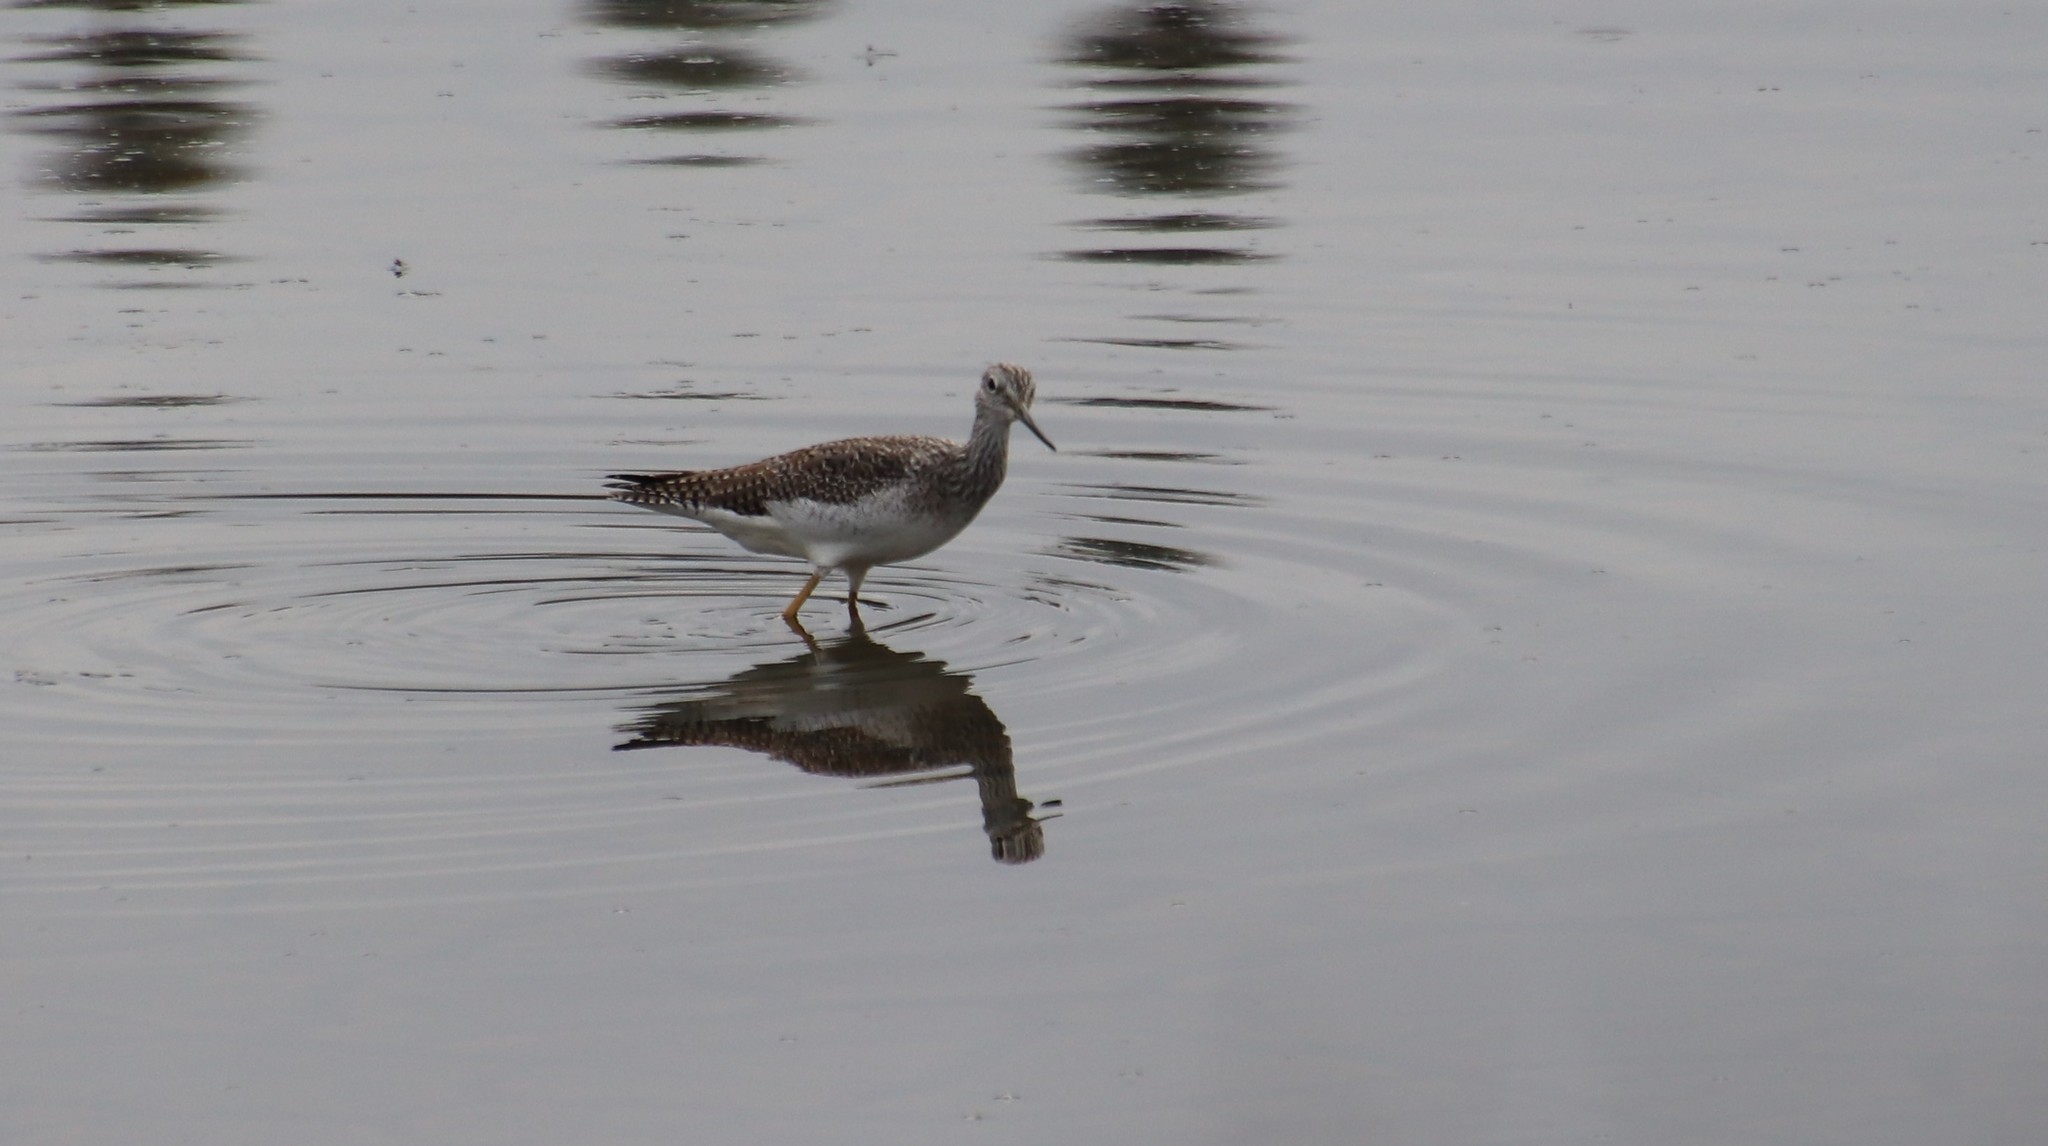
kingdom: Animalia
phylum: Chordata
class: Aves
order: Charadriiformes
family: Scolopacidae
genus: Tringa
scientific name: Tringa melanoleuca
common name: Greater yellowlegs
